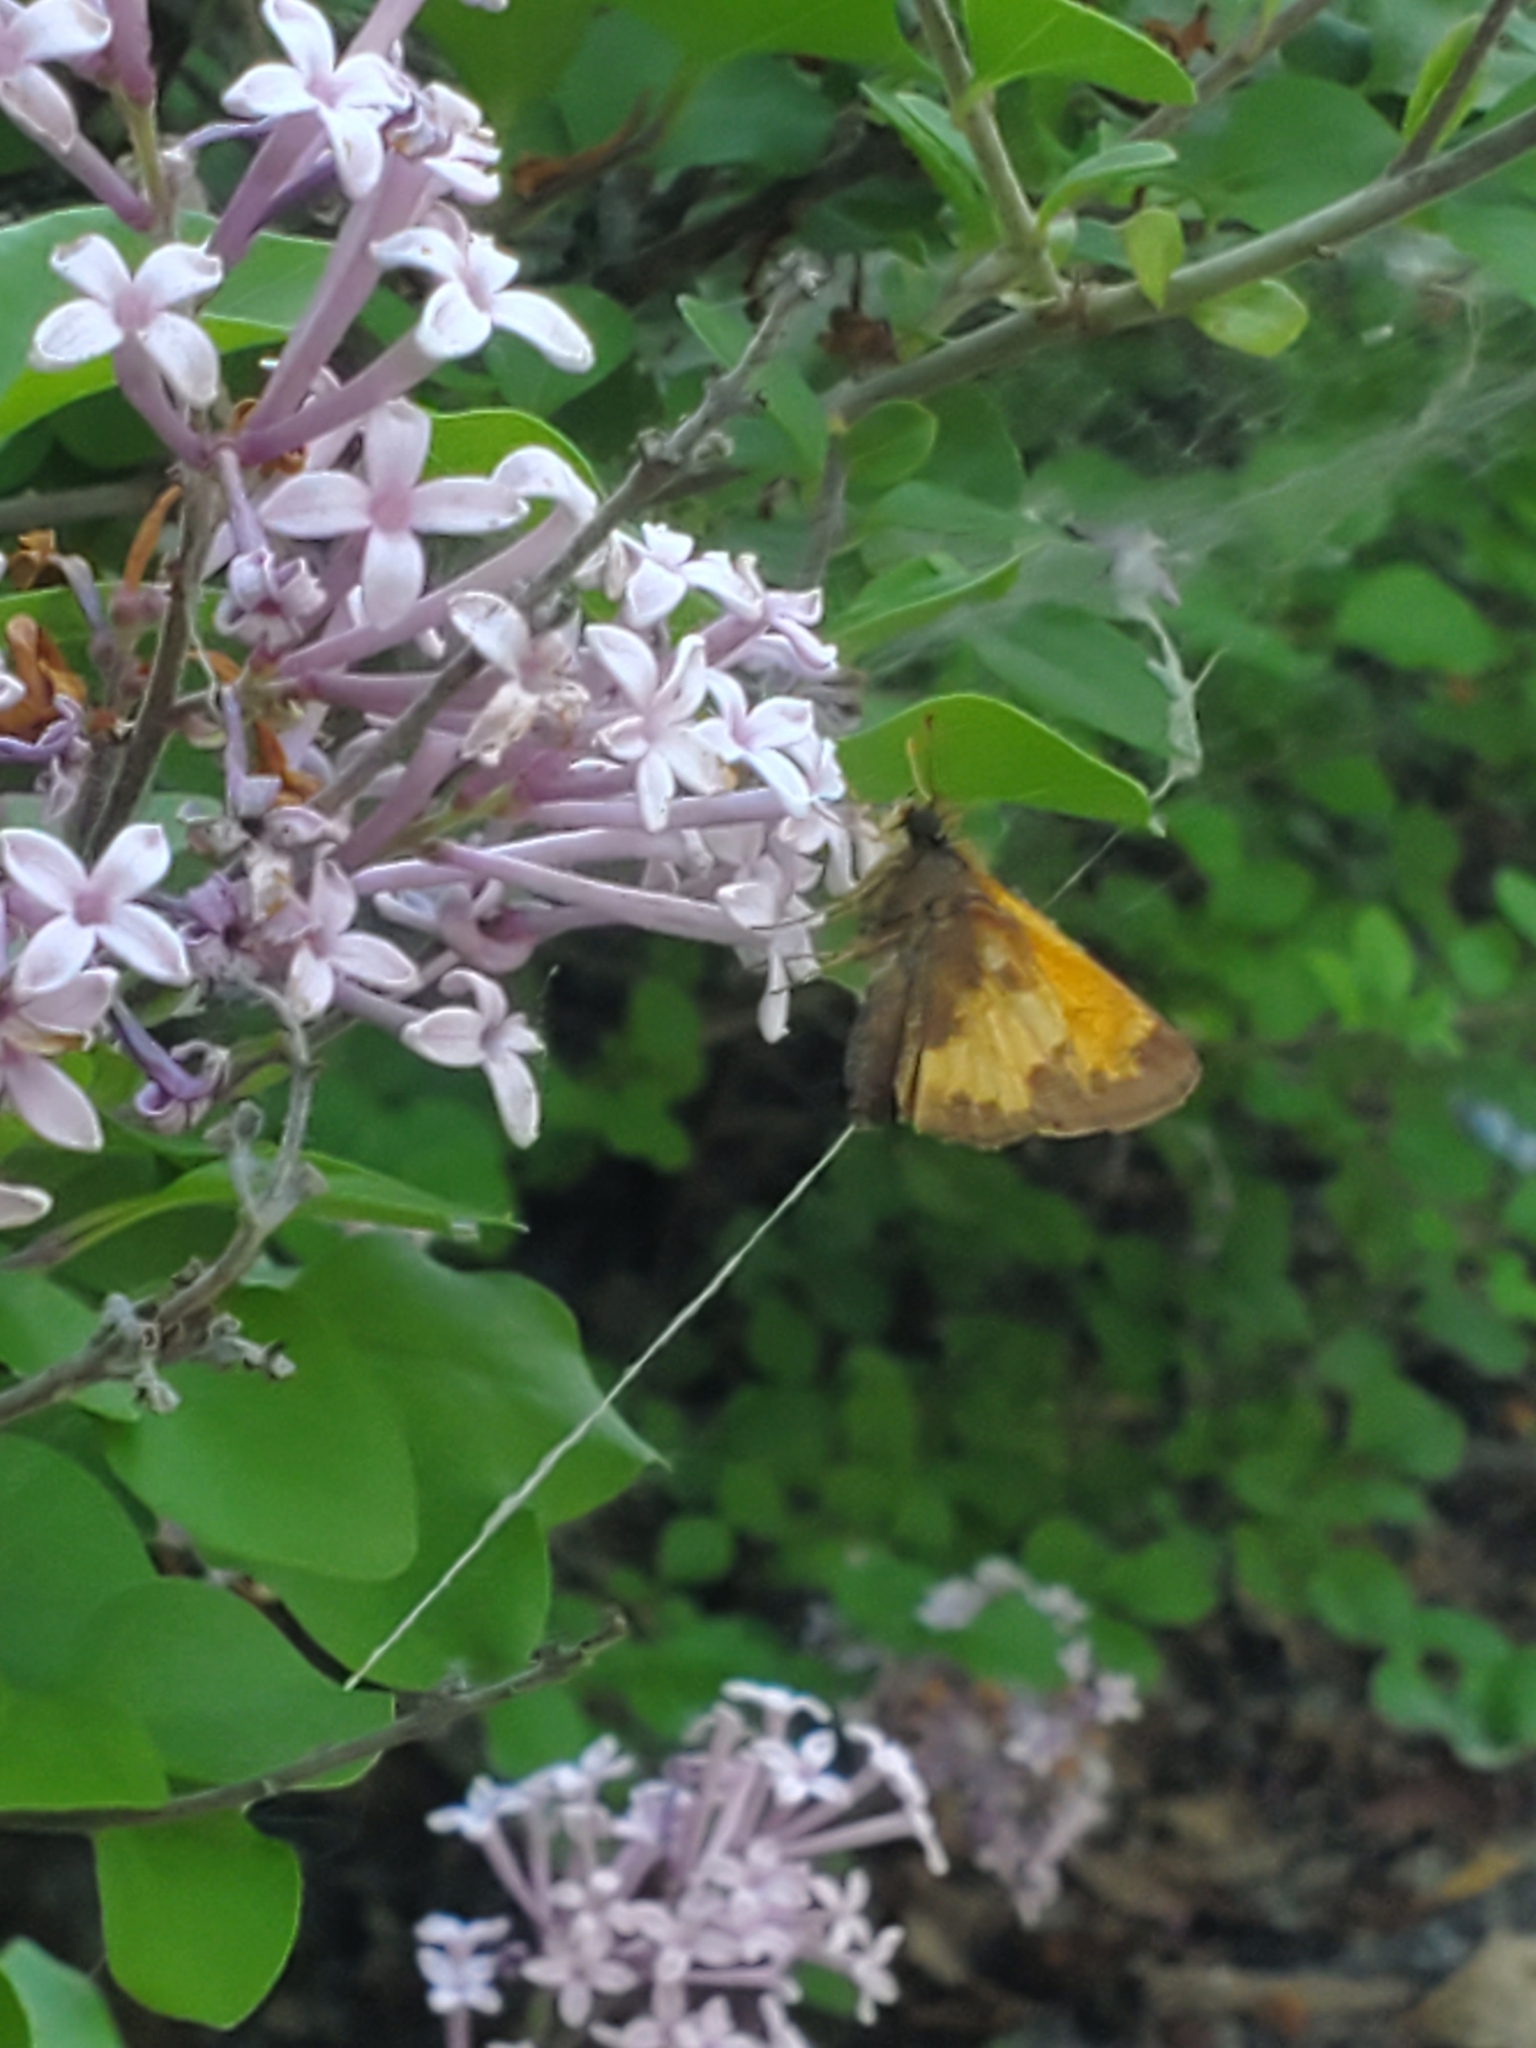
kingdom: Animalia
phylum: Arthropoda
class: Insecta
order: Lepidoptera
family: Hesperiidae
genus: Lon
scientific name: Lon hobomok
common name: Hobomok skipper
